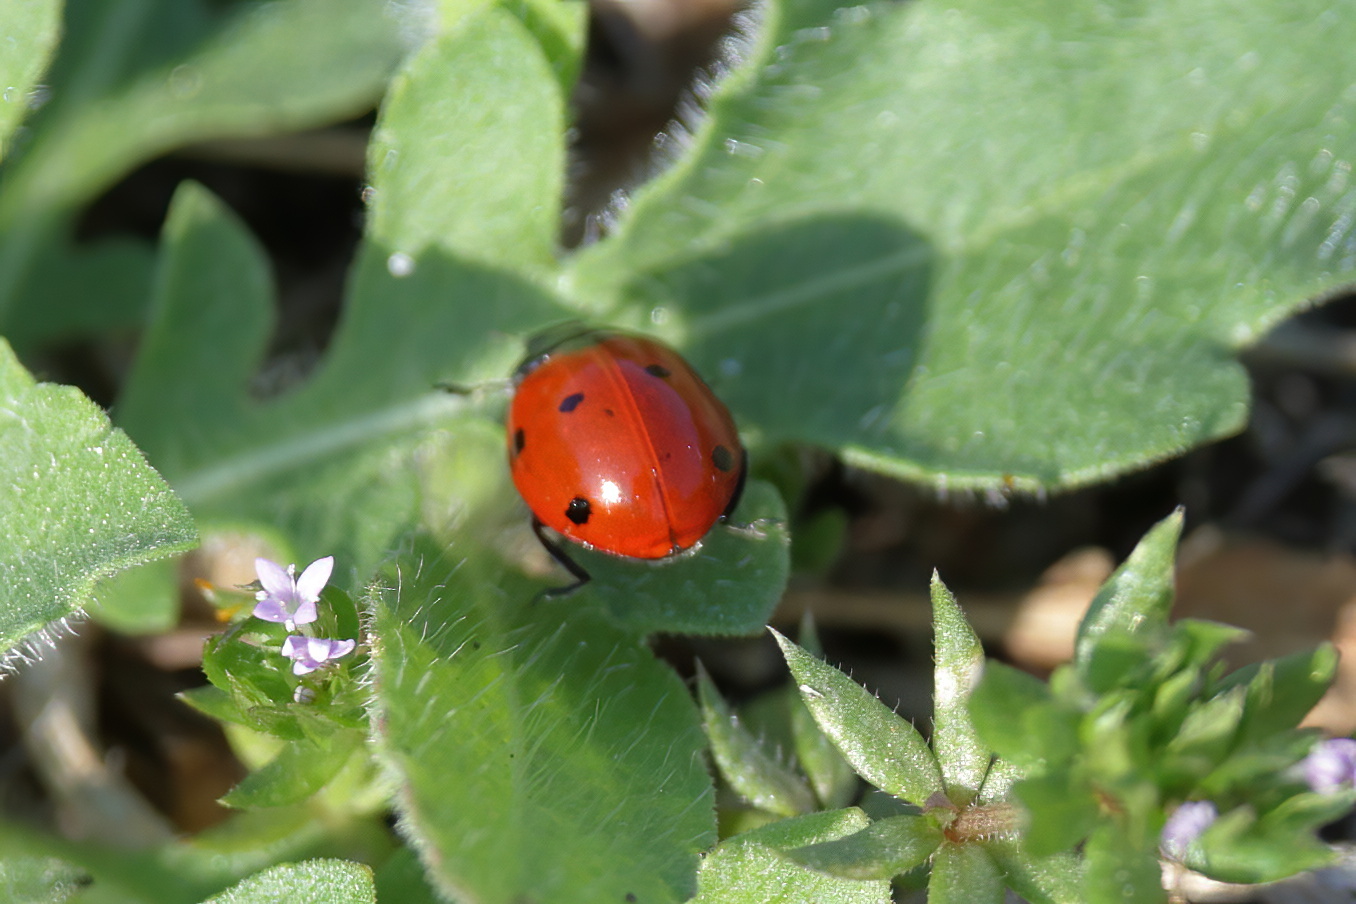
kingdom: Animalia
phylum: Arthropoda
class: Insecta
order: Coleoptera
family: Coccinellidae
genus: Coccinella
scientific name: Coccinella septempunctata
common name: Sevenspotted lady beetle
